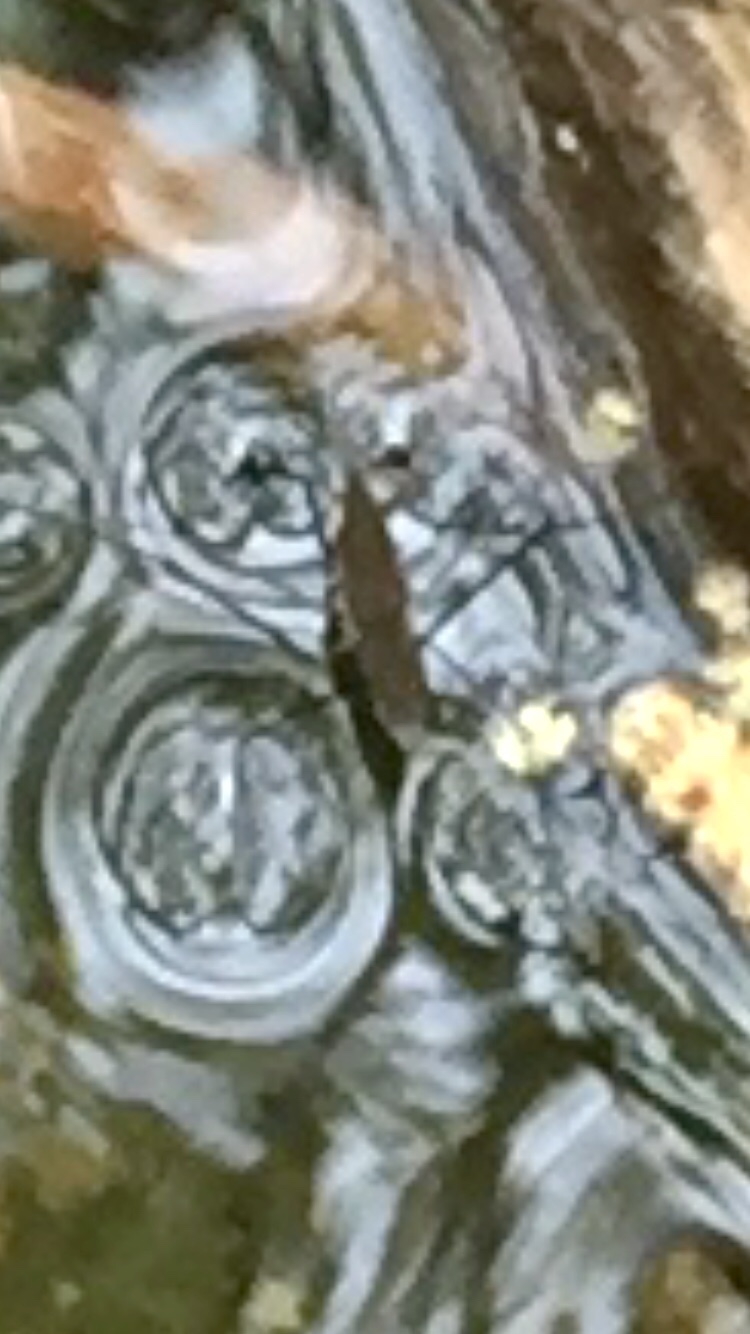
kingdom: Animalia
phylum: Arthropoda
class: Insecta
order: Hemiptera
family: Gerridae
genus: Aquarius
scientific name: Aquarius remigis
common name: Common water strider
